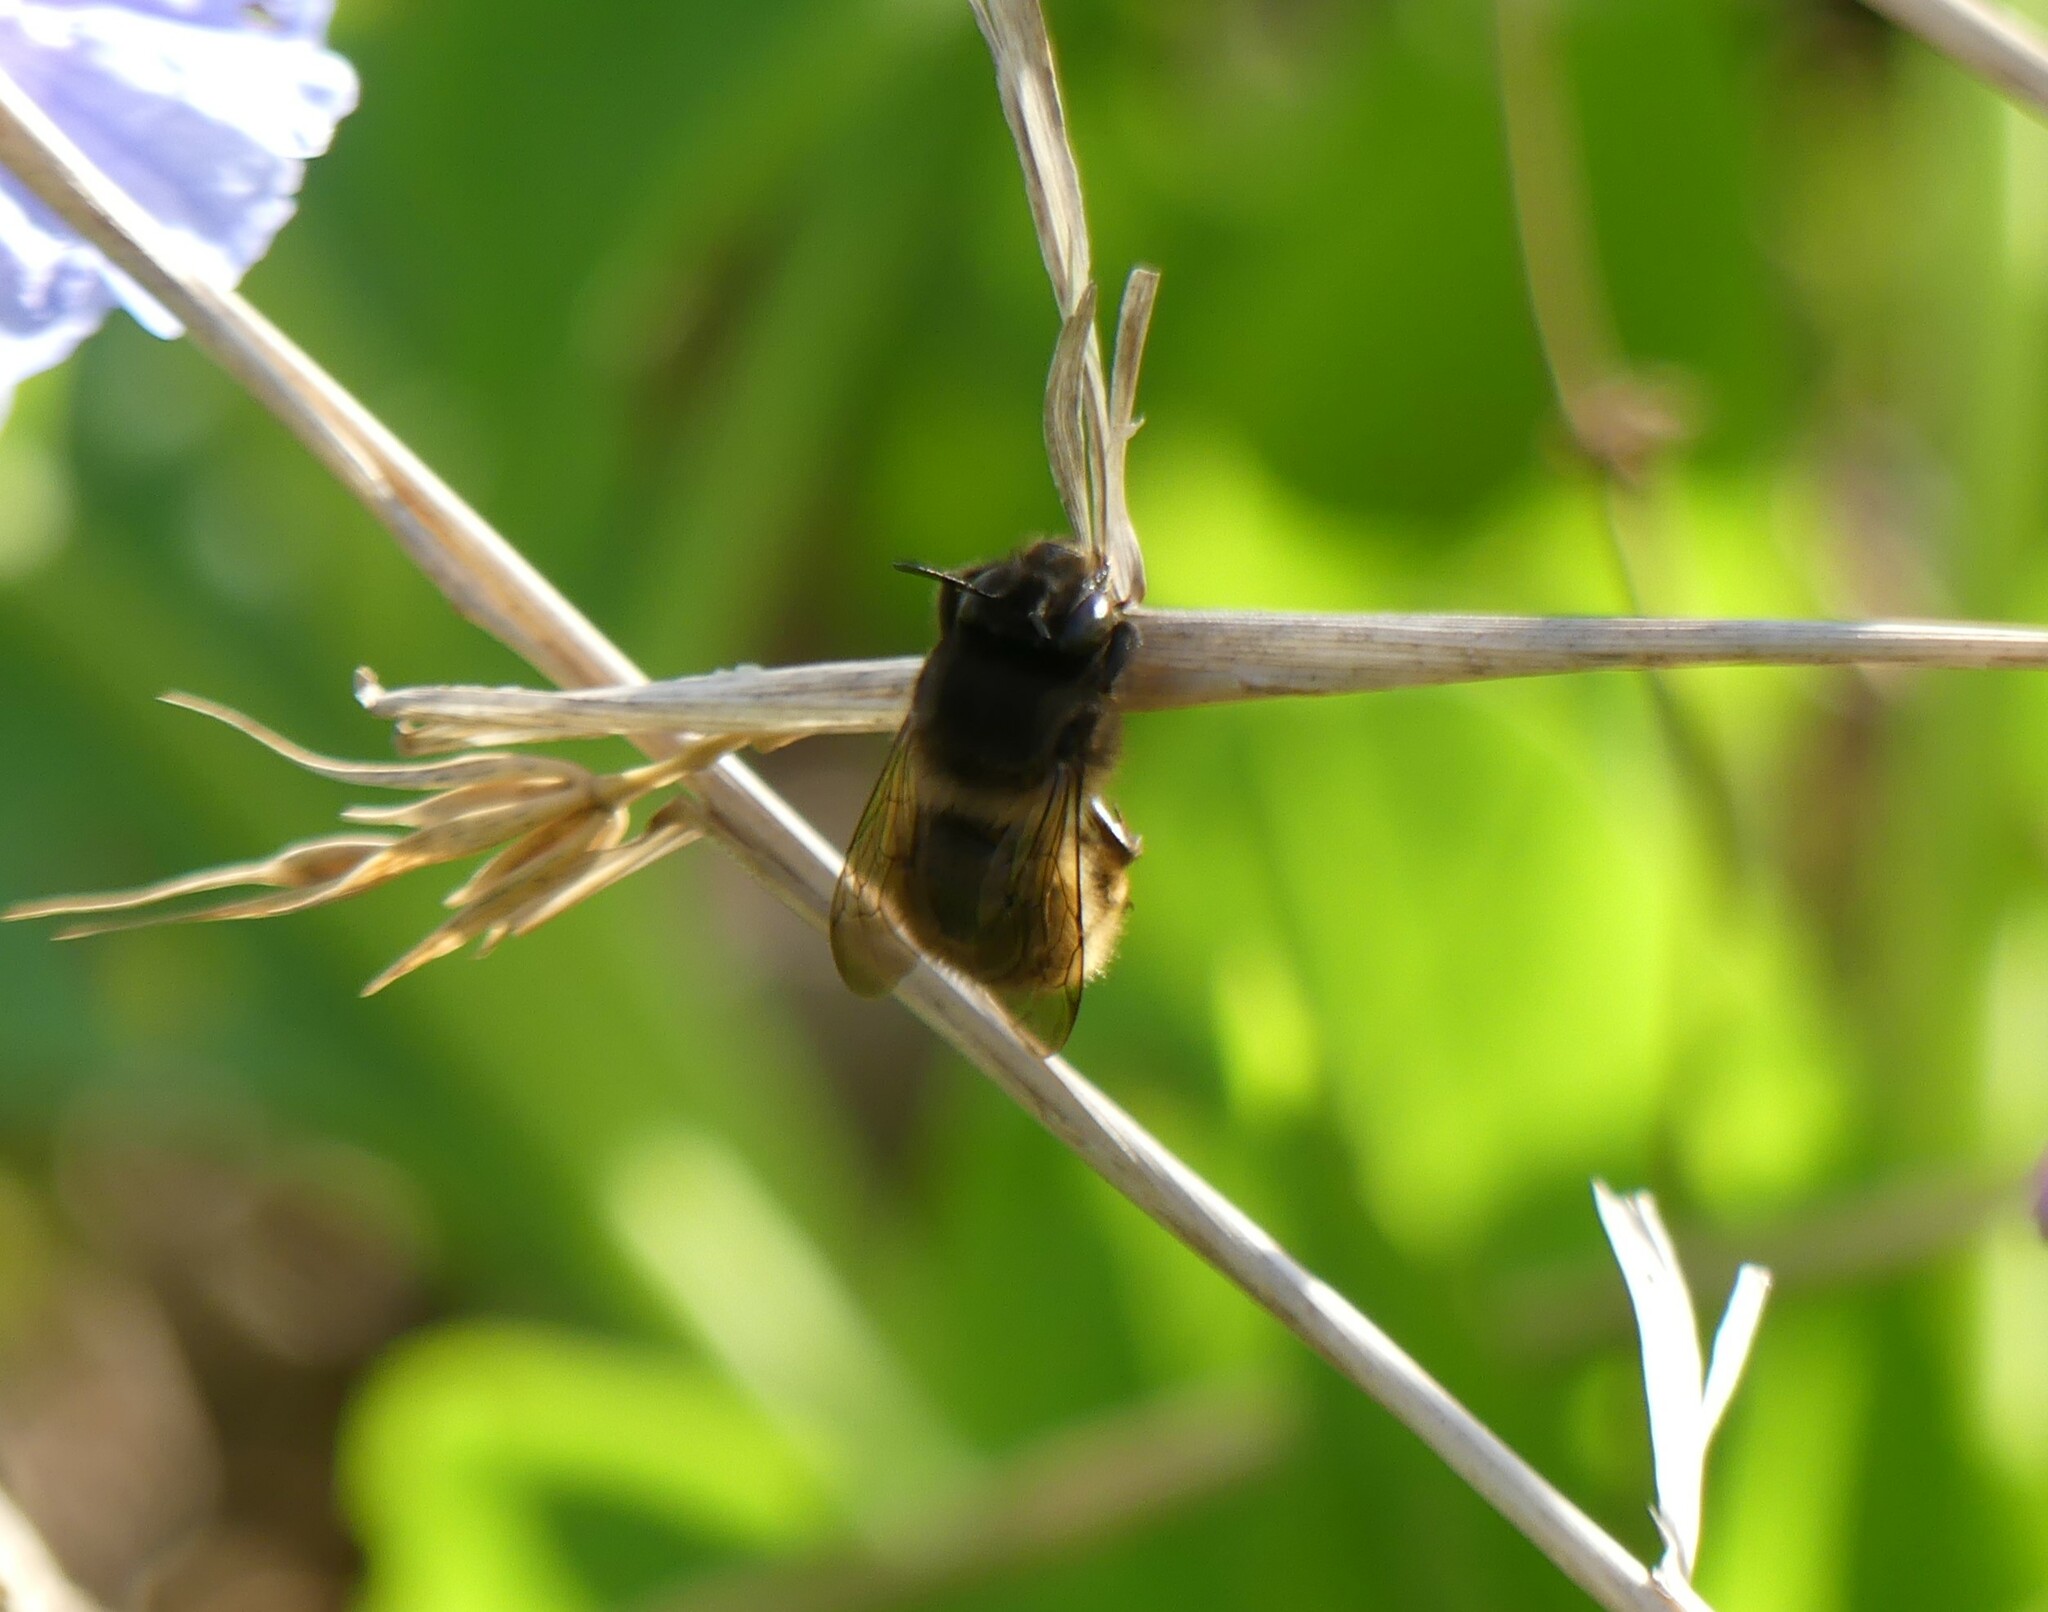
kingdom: Animalia
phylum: Arthropoda
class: Insecta
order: Hymenoptera
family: Apidae
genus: Anthophora
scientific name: Anthophora villosula
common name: Asian shaggy digger
